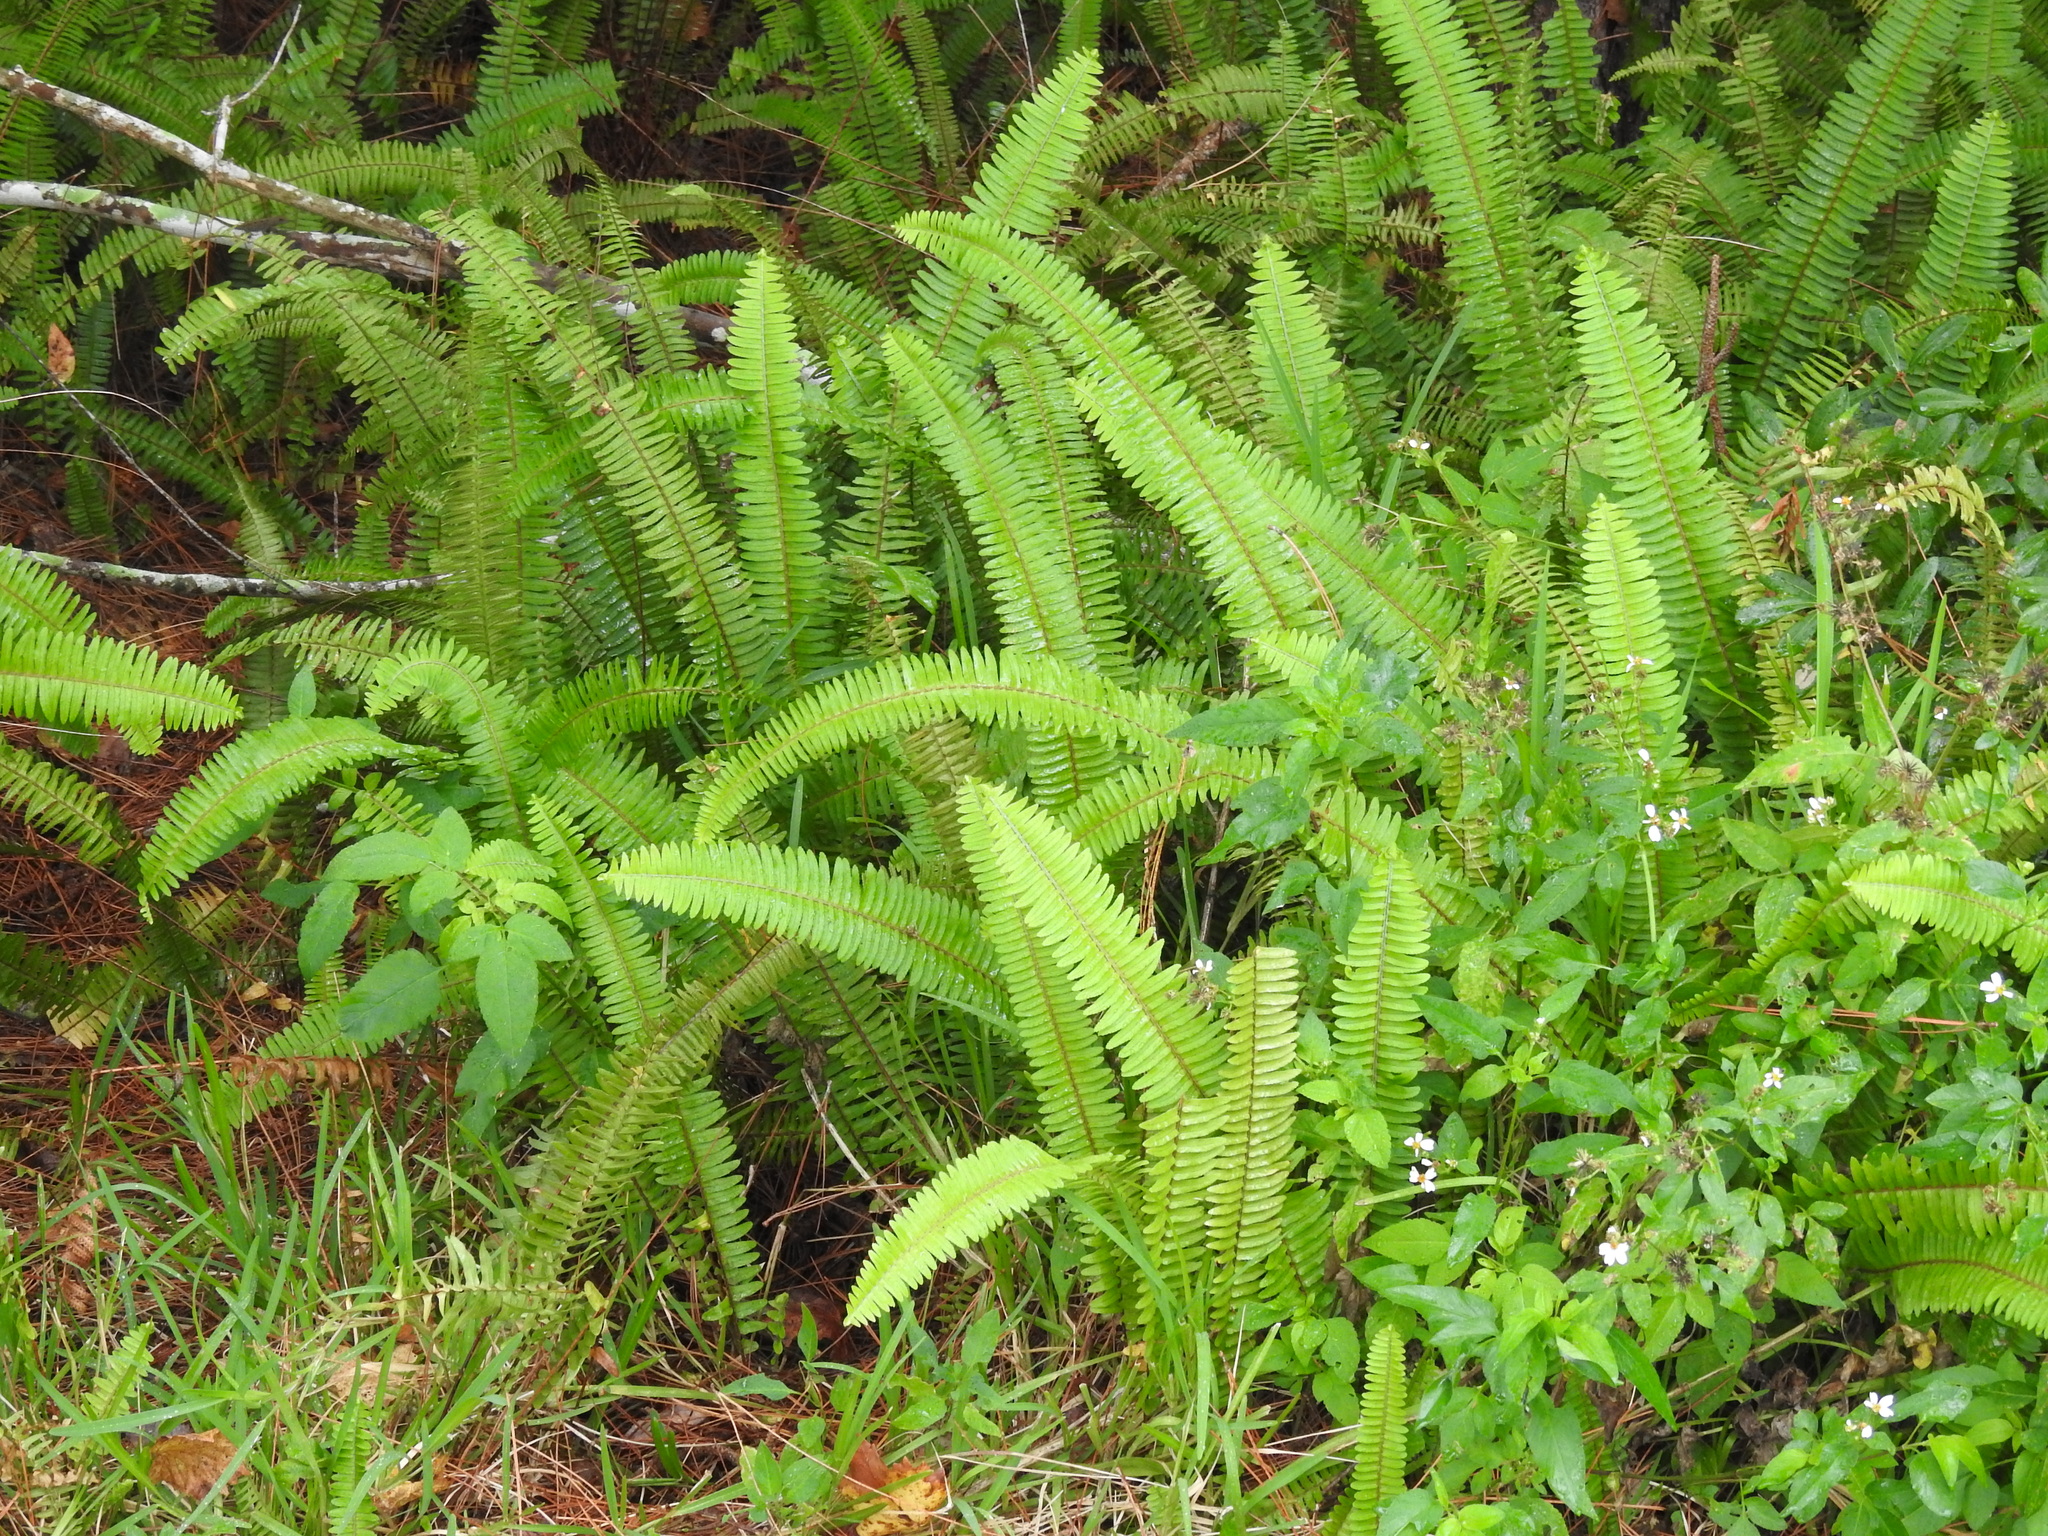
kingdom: Plantae
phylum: Tracheophyta
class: Polypodiopsida
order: Polypodiales
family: Nephrolepidaceae
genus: Nephrolepis
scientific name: Nephrolepis cordifolia
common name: Narrow swordfern
